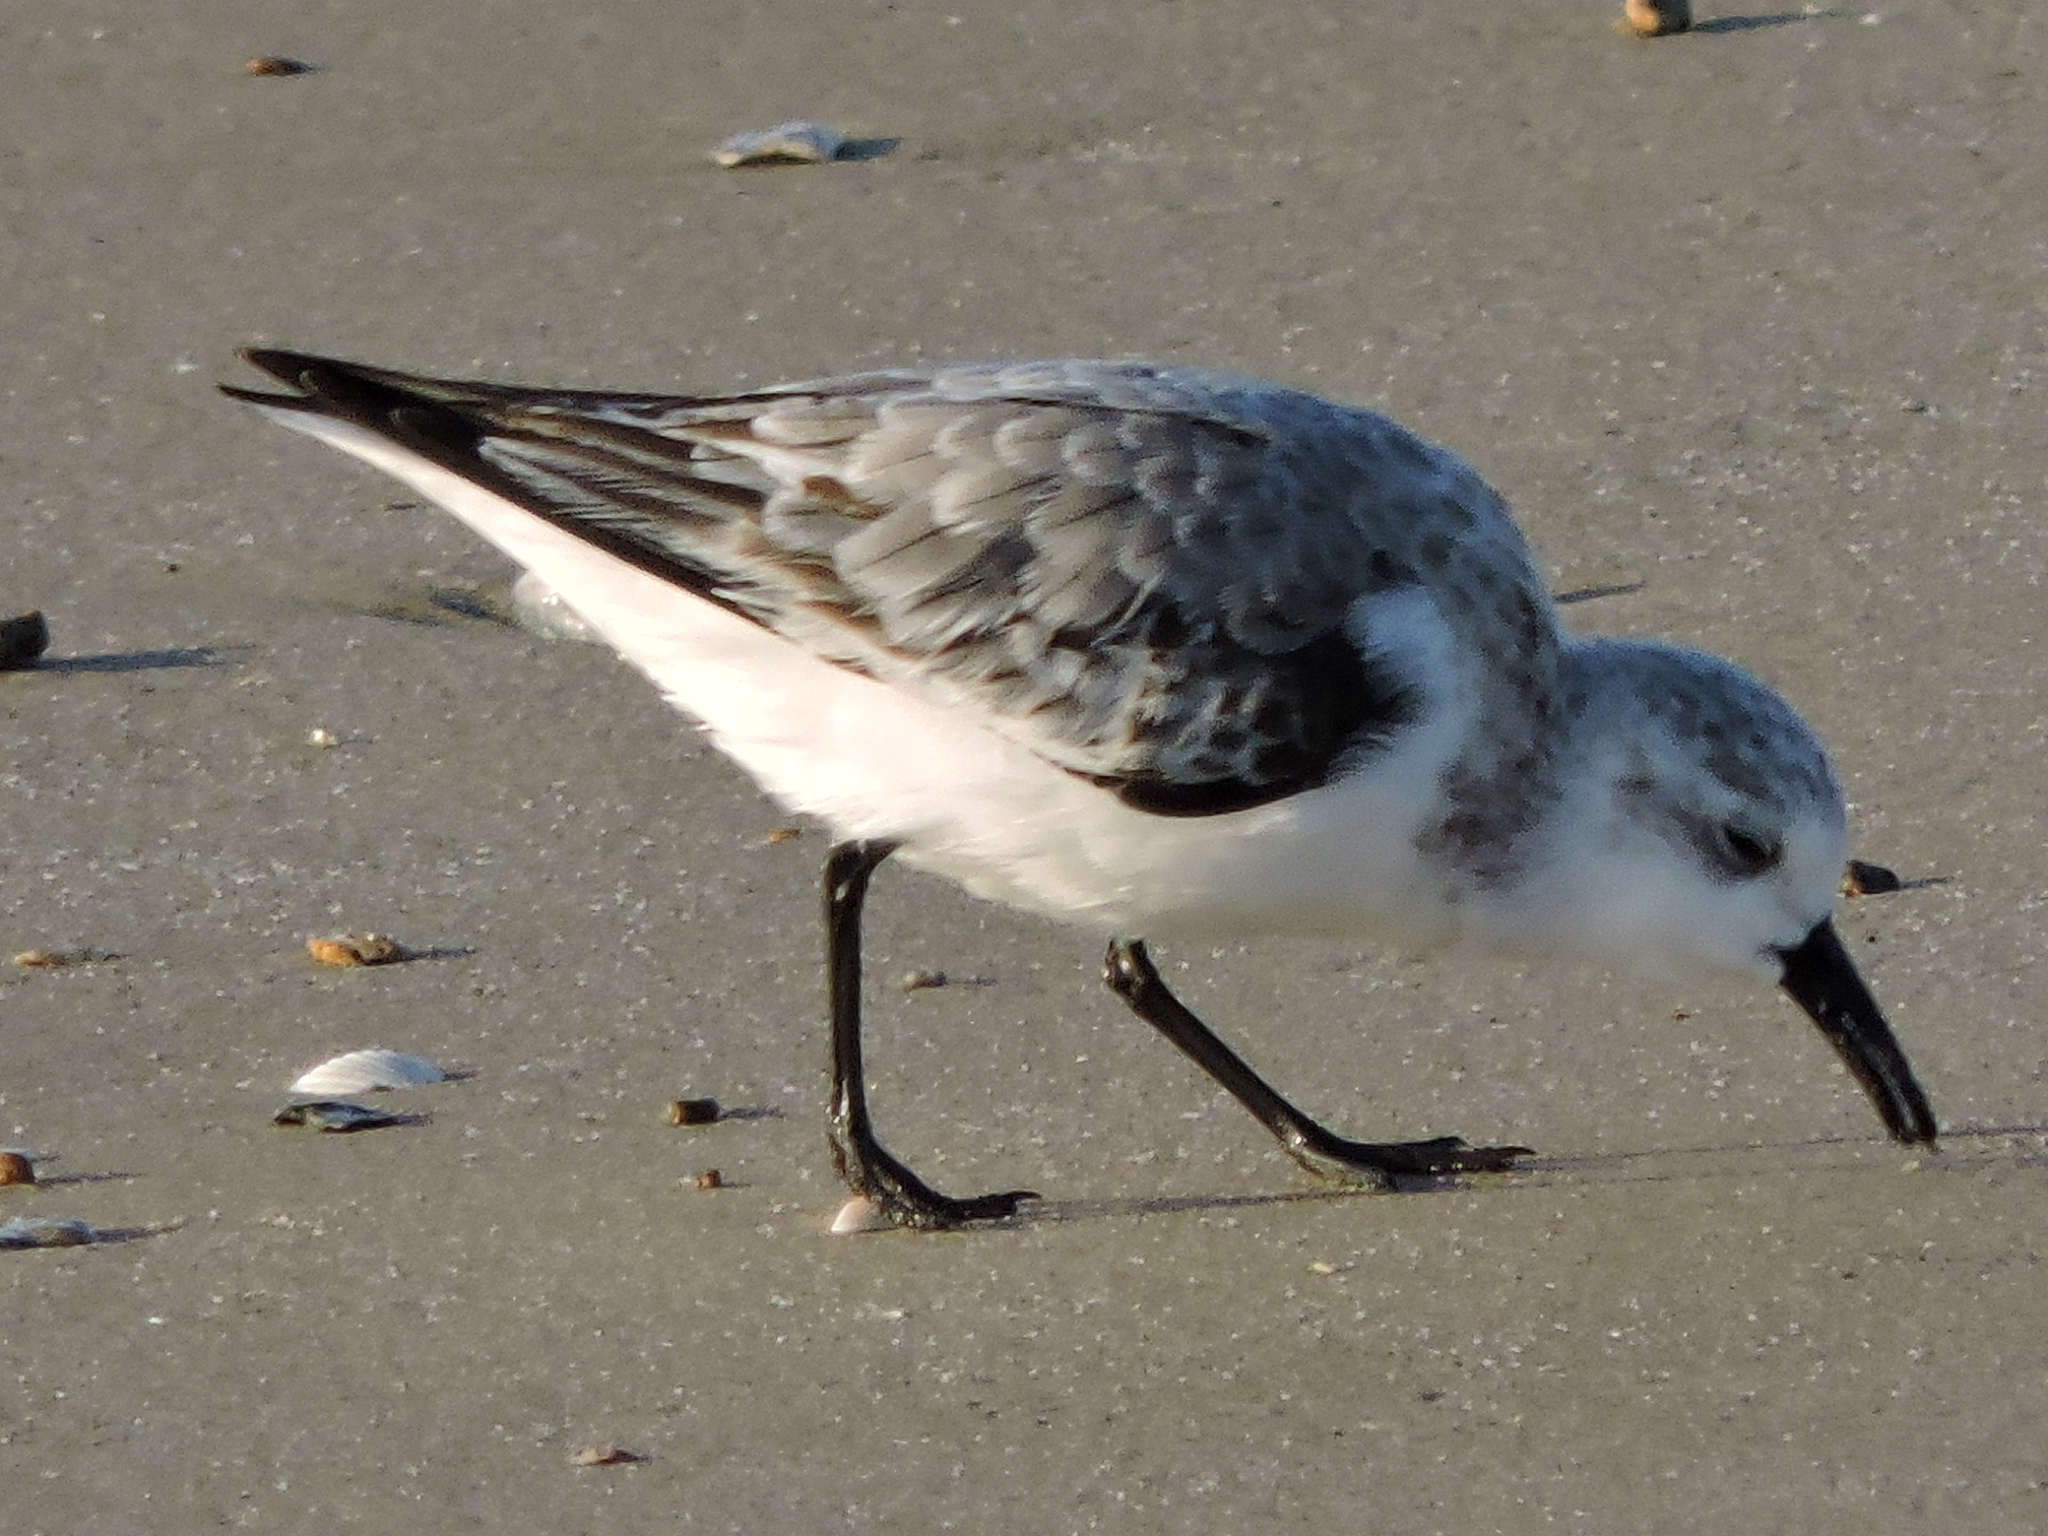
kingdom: Animalia
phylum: Chordata
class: Aves
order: Charadriiformes
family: Scolopacidae
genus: Calidris
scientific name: Calidris alba
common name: Sanderling
